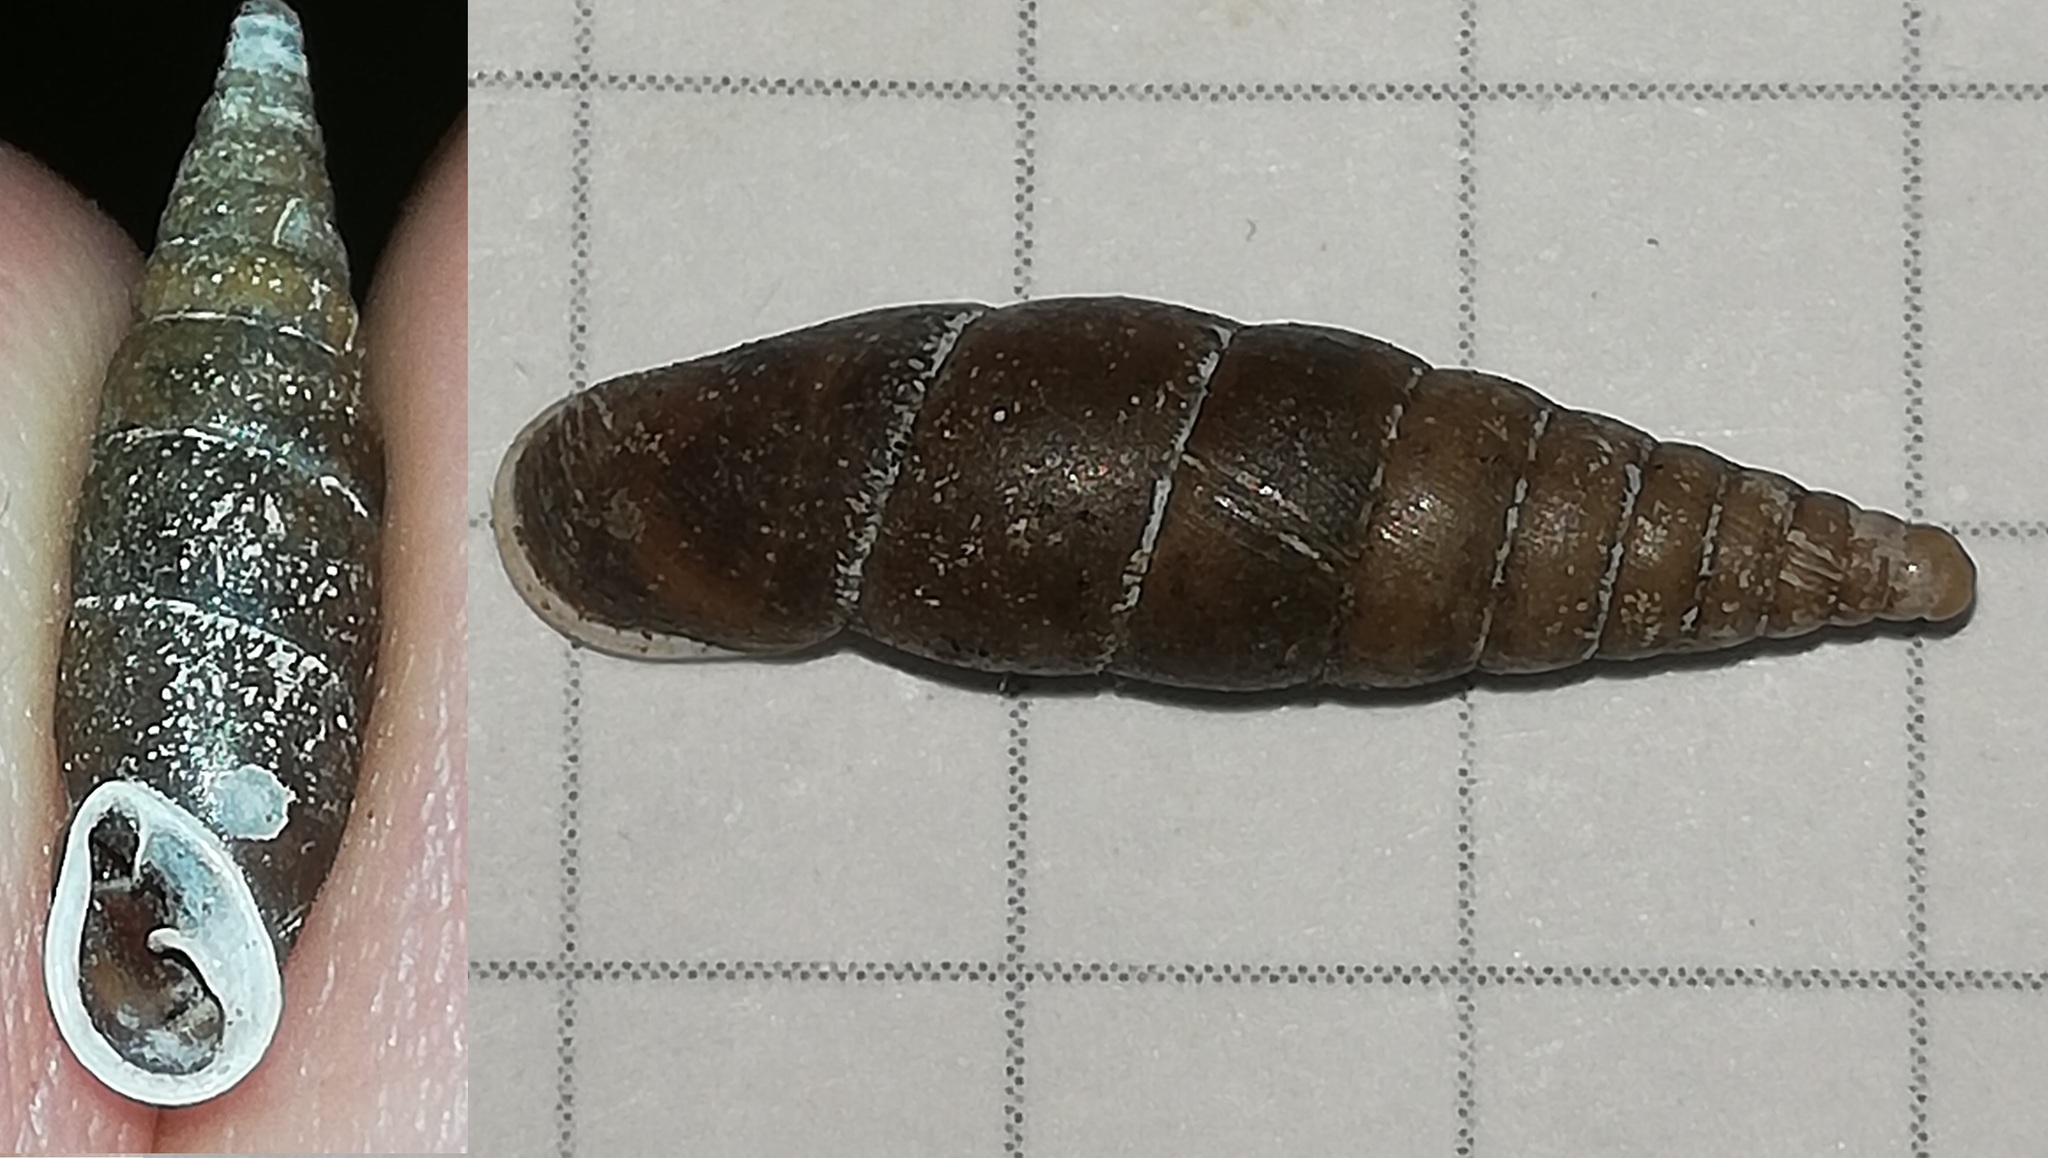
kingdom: Animalia
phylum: Mollusca
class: Gastropoda
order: Stylommatophora
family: Clausiliidae
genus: Cochlodina
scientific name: Cochlodina laminata
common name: Plaited door snail
